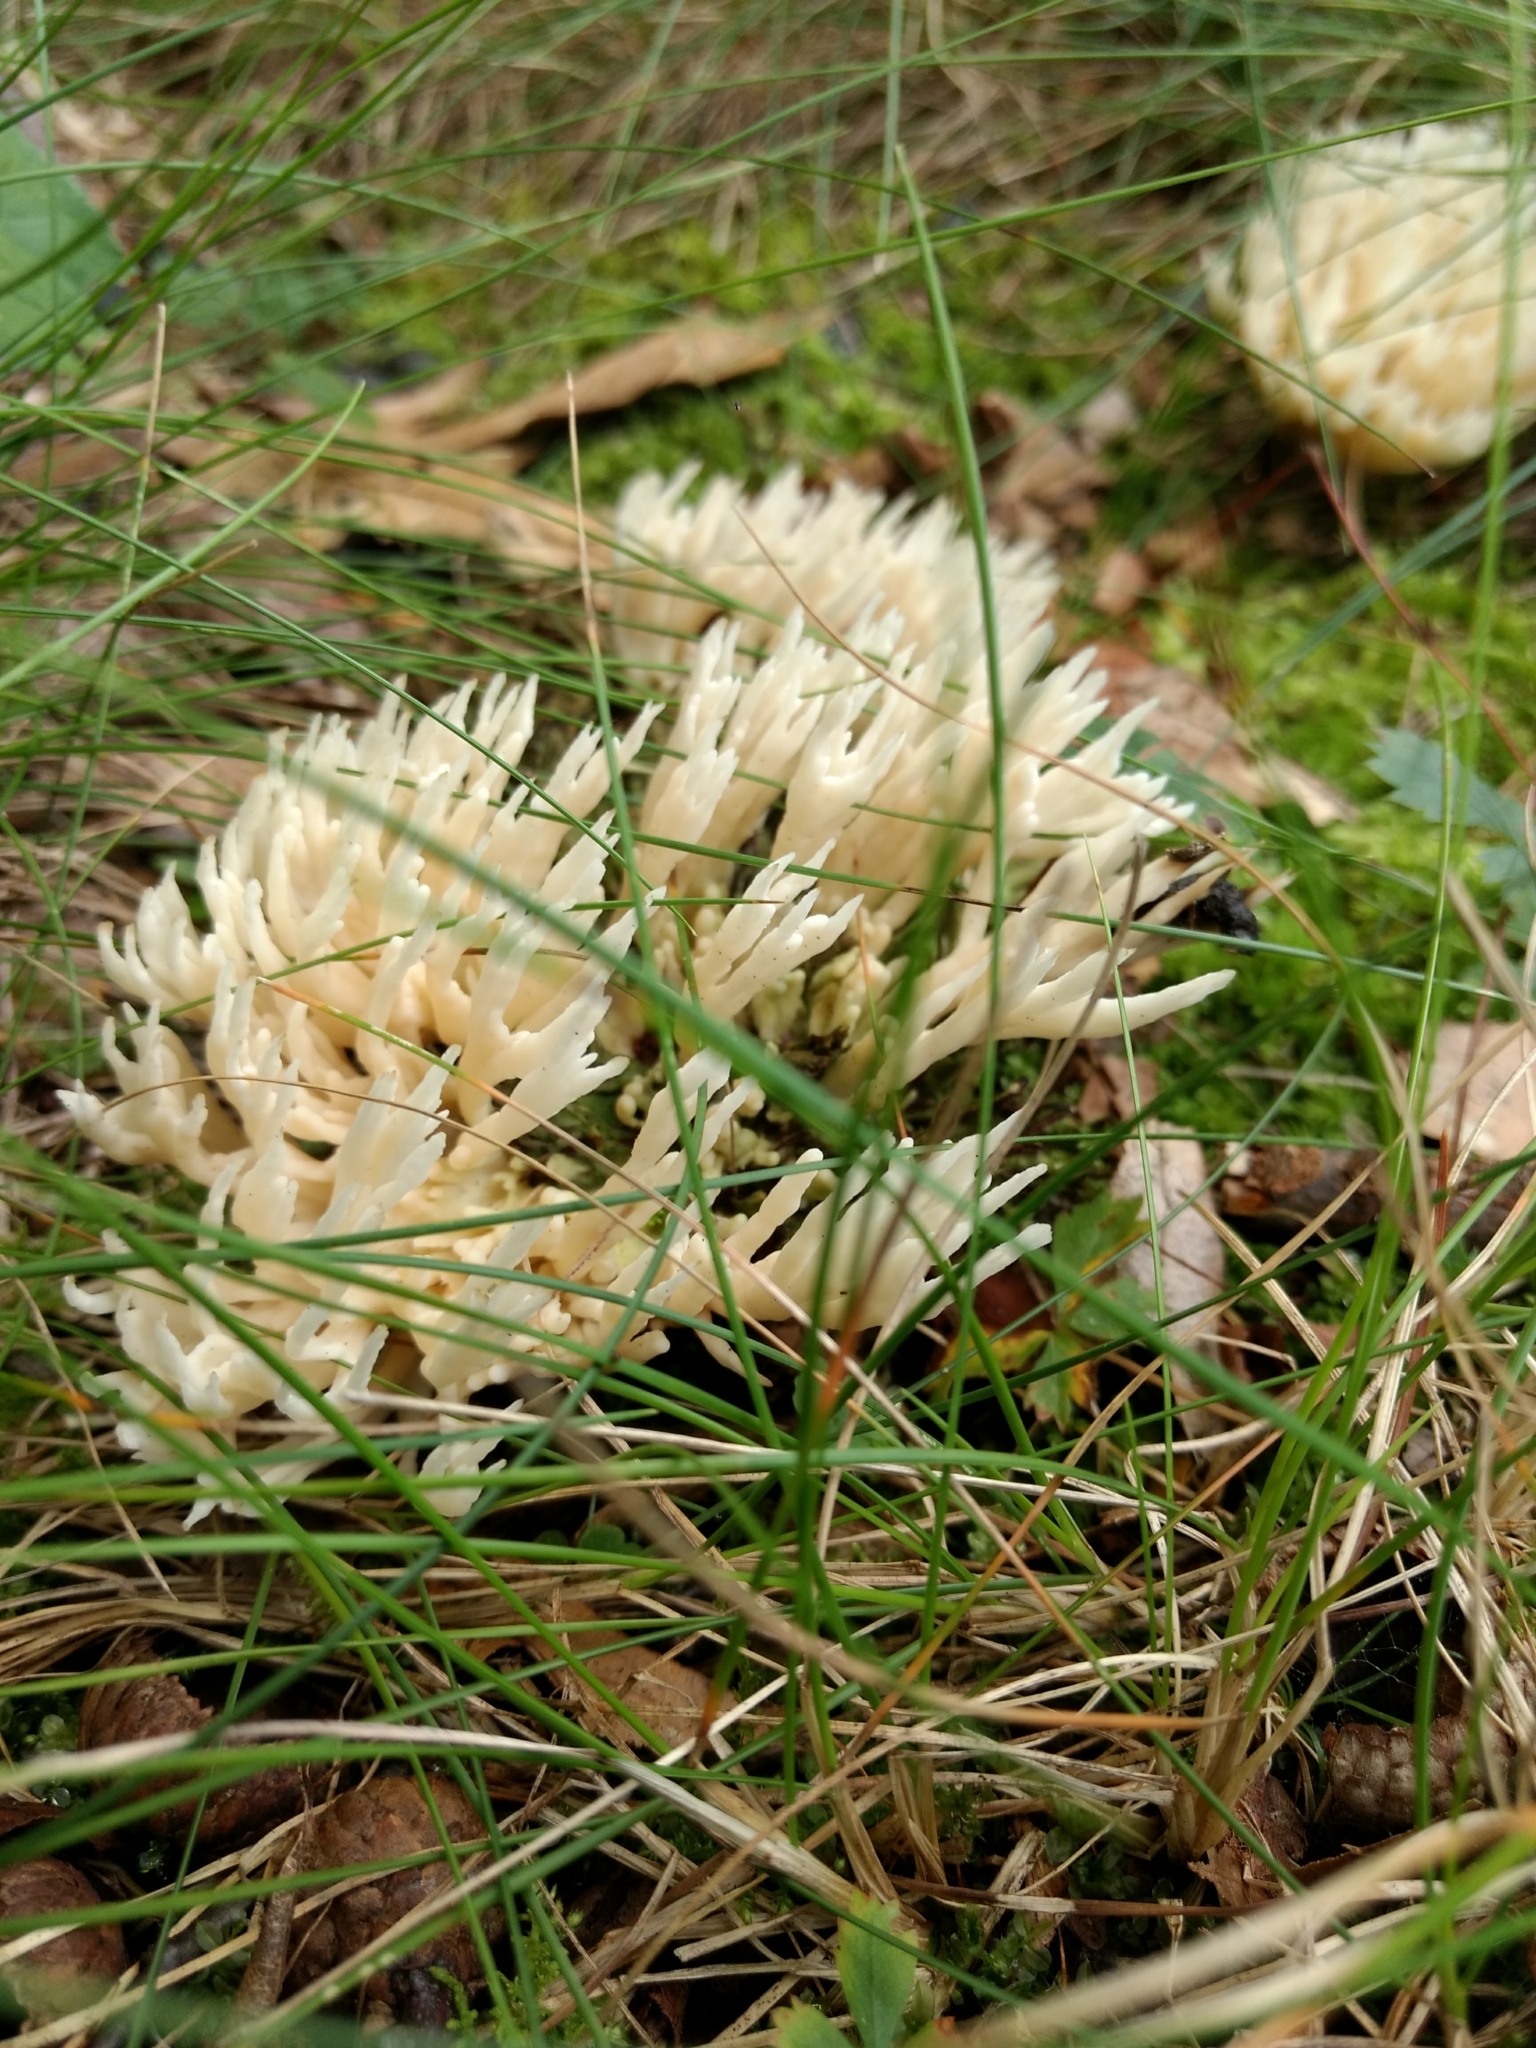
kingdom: Fungi
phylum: Basidiomycota
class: Agaricomycetes
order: Cantharellales
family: Hydnaceae
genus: Clavulina
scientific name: Clavulina coralloides
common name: Crested coral
